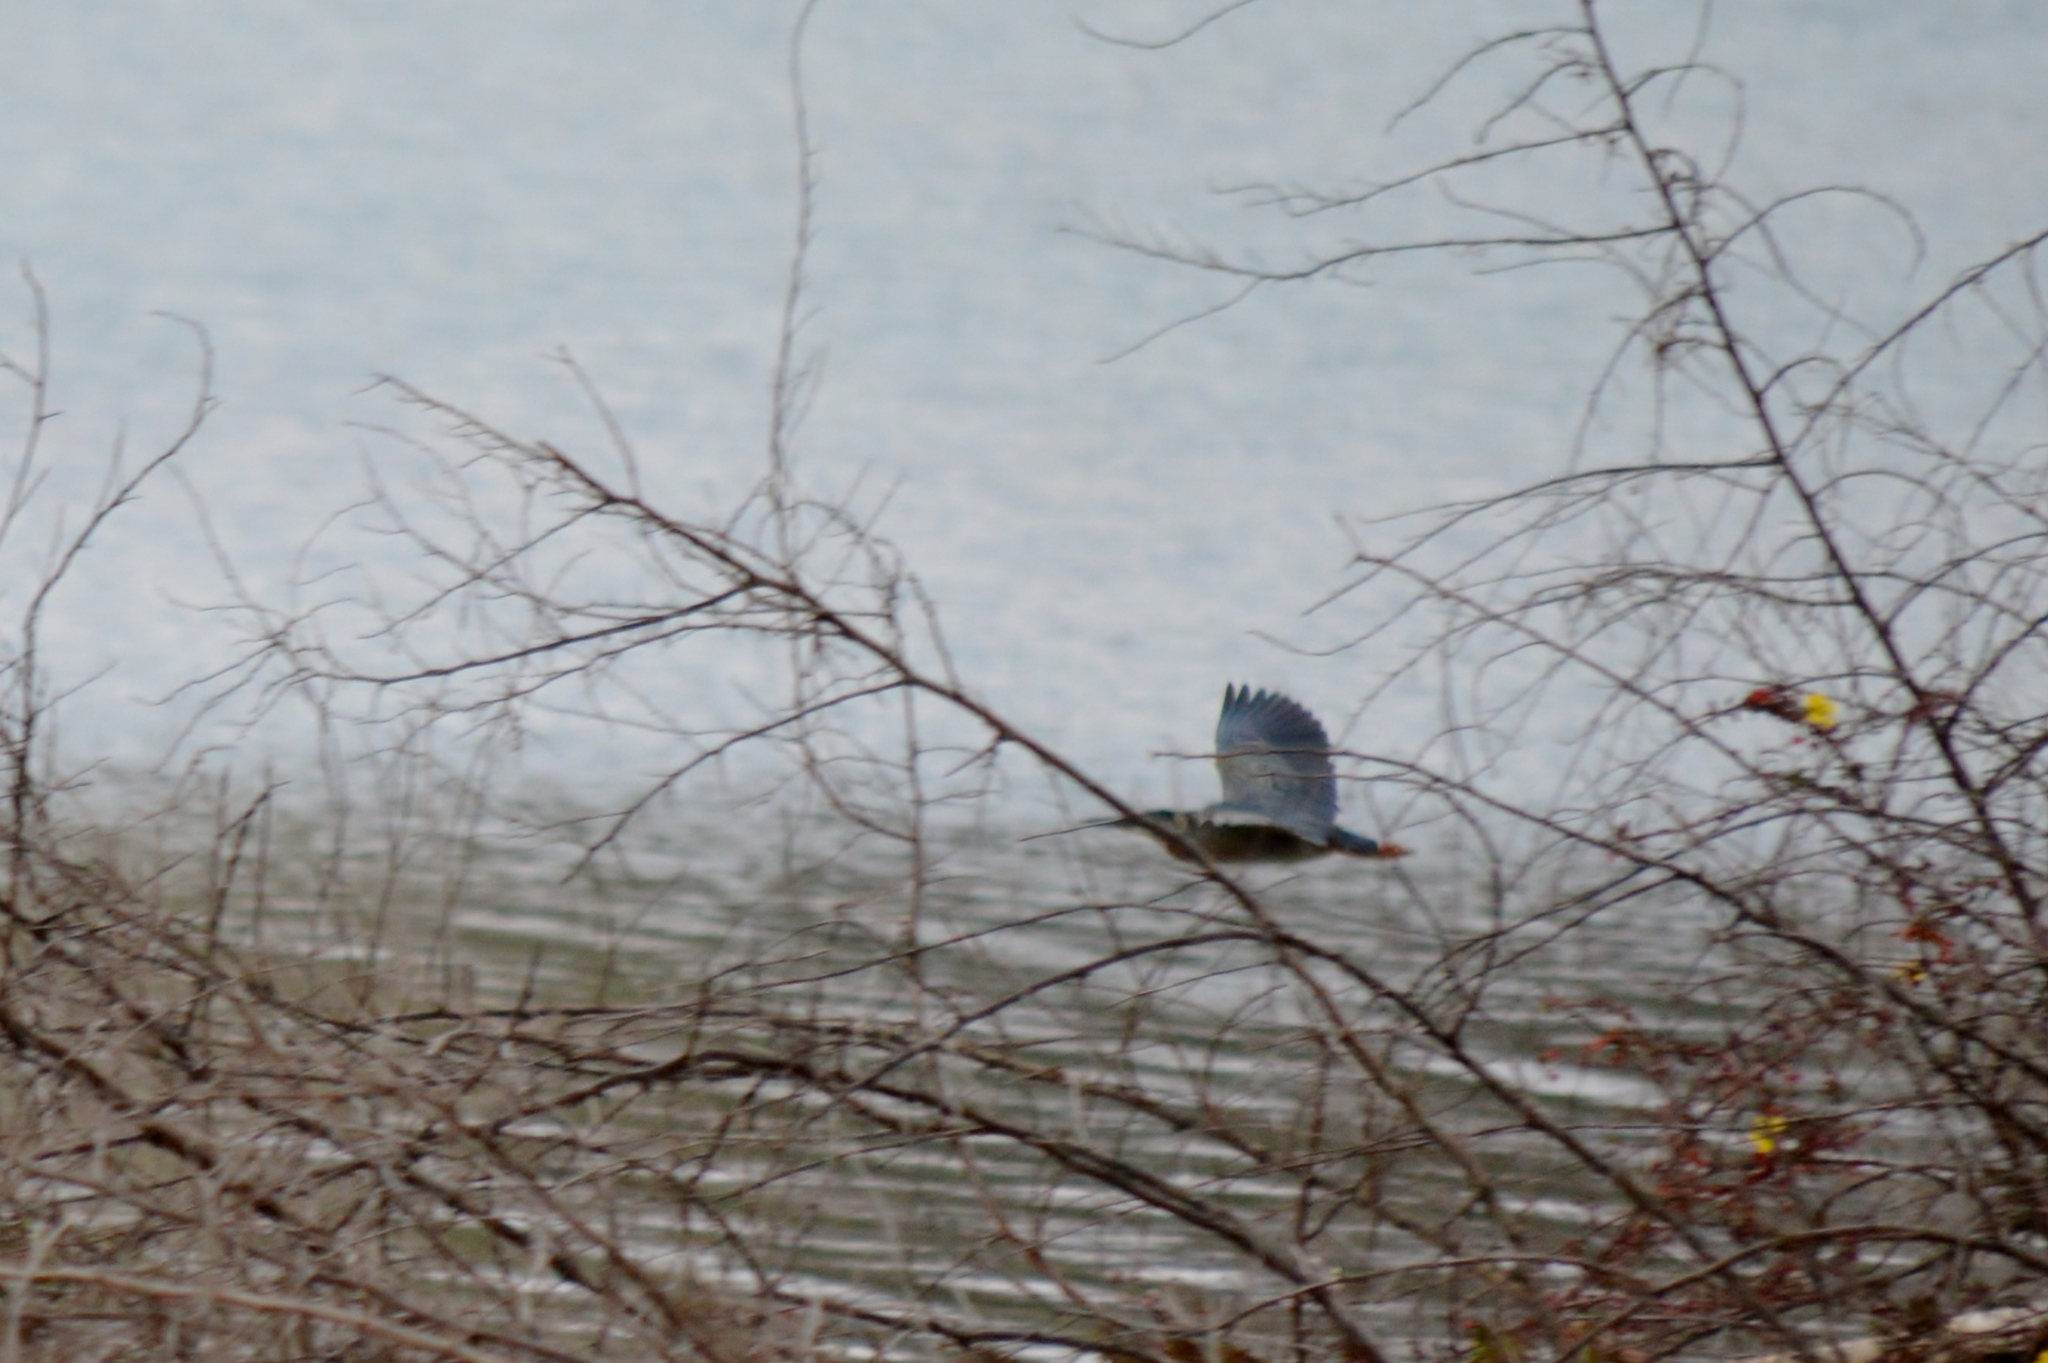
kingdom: Animalia
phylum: Chordata
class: Aves
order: Pelecaniformes
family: Ardeidae
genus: Butorides
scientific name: Butorides striata
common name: Striated heron
